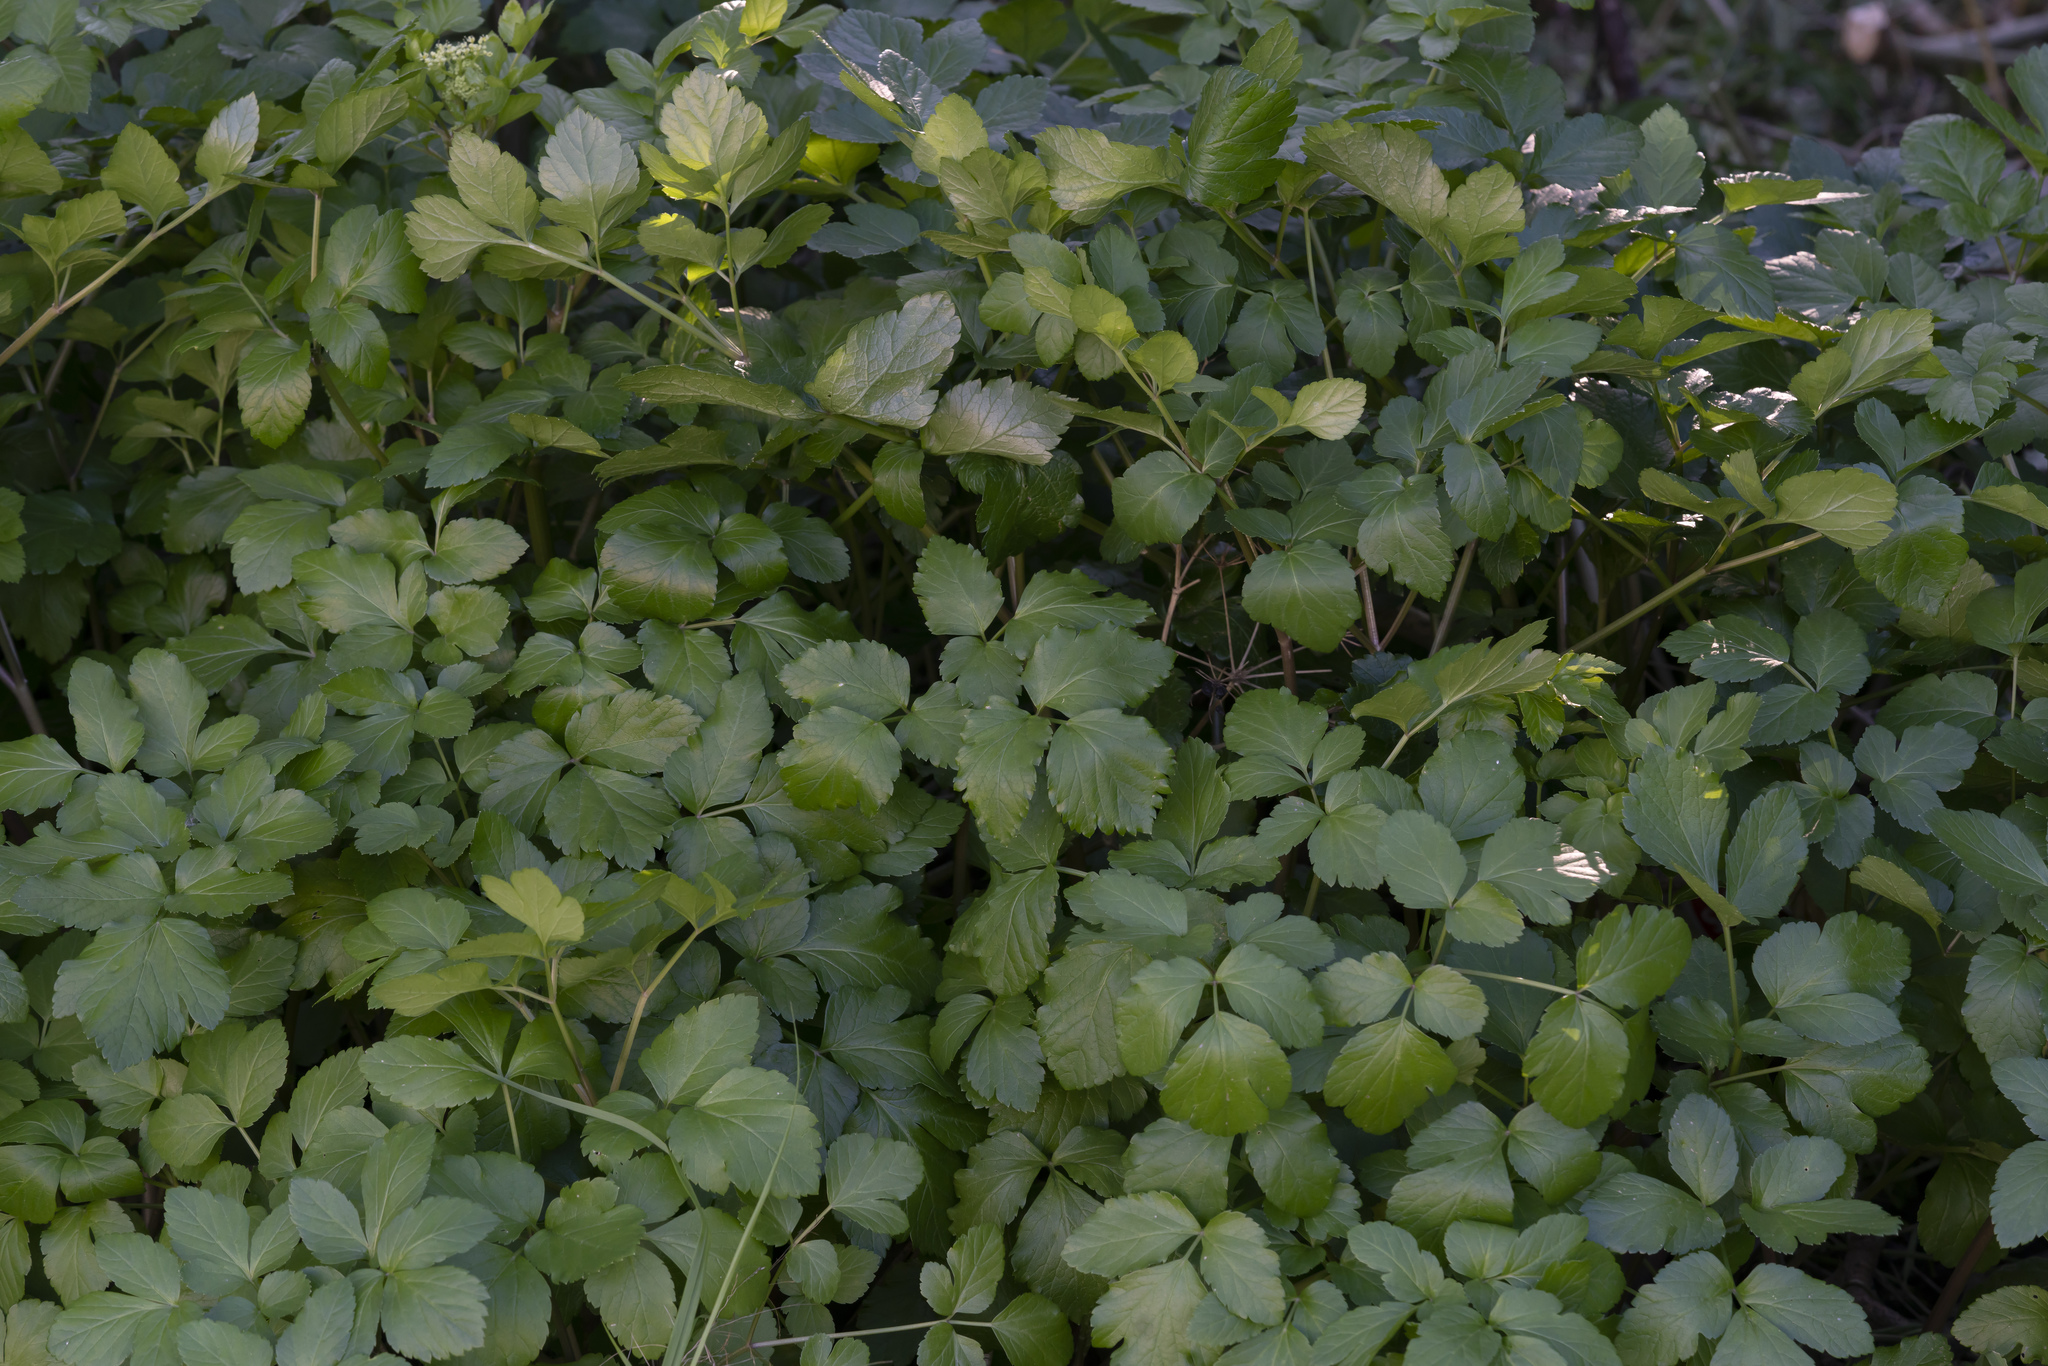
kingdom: Plantae
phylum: Tracheophyta
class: Magnoliopsida
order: Apiales
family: Apiaceae
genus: Smyrnium
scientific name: Smyrnium olusatrum
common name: Alexanders
